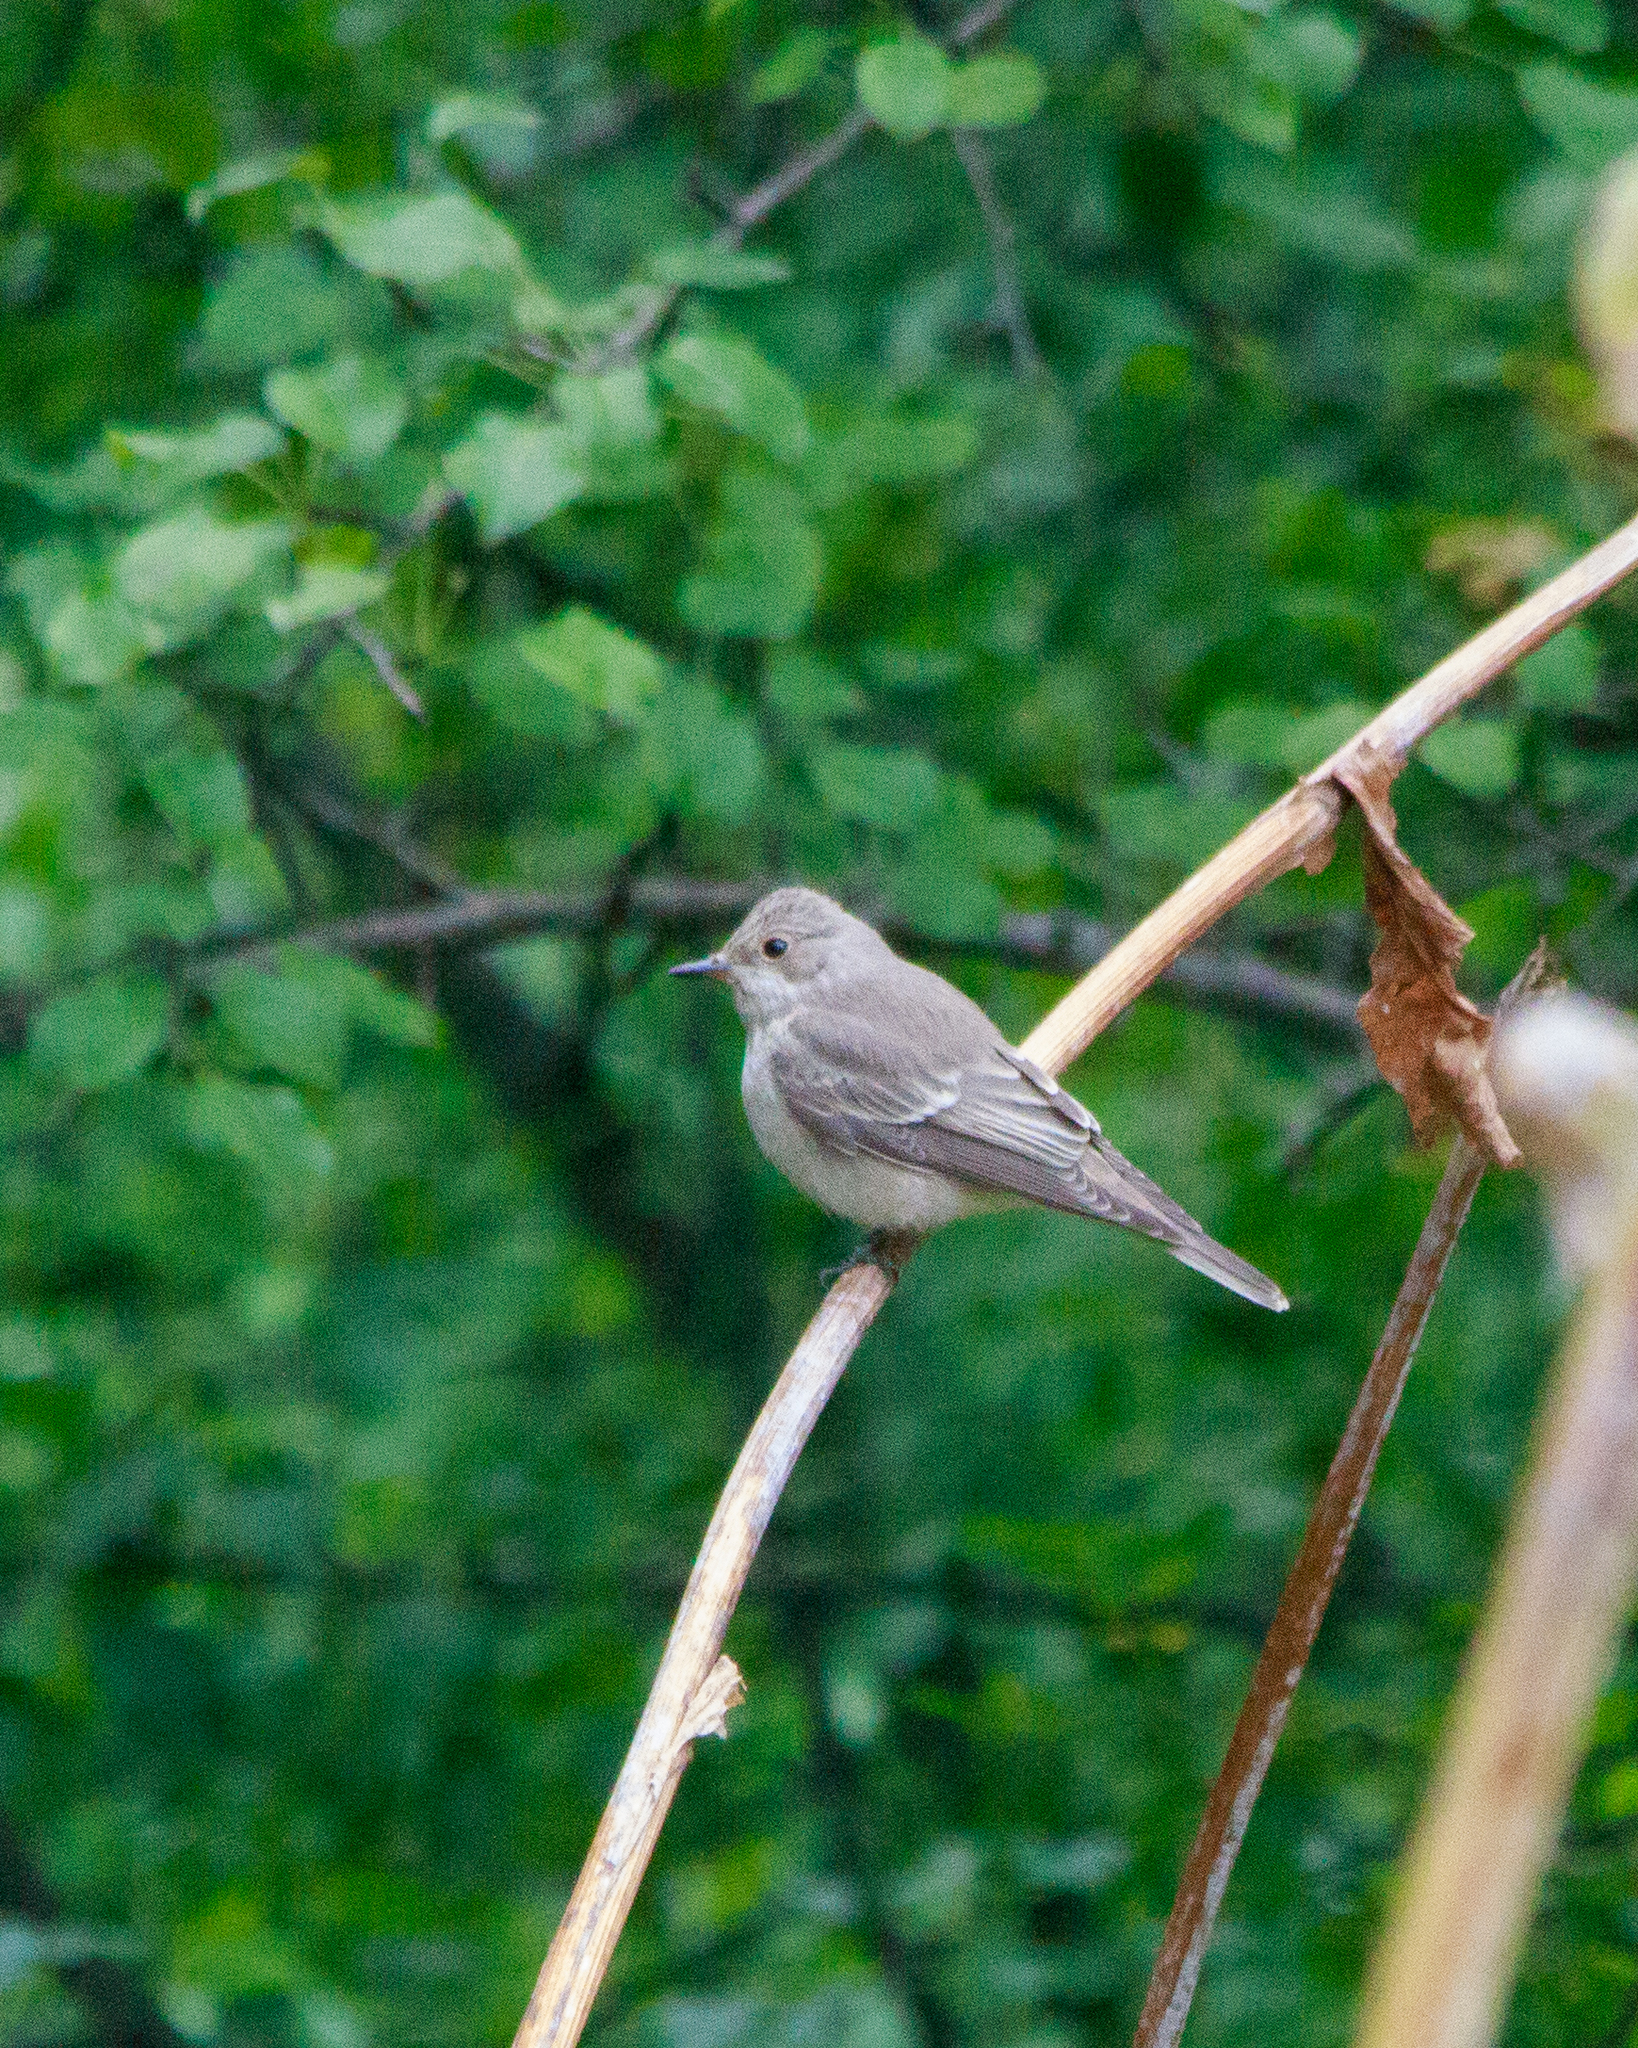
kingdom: Animalia
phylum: Chordata
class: Aves
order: Passeriformes
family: Muscicapidae
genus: Muscicapa
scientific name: Muscicapa striata
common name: Spotted flycatcher
